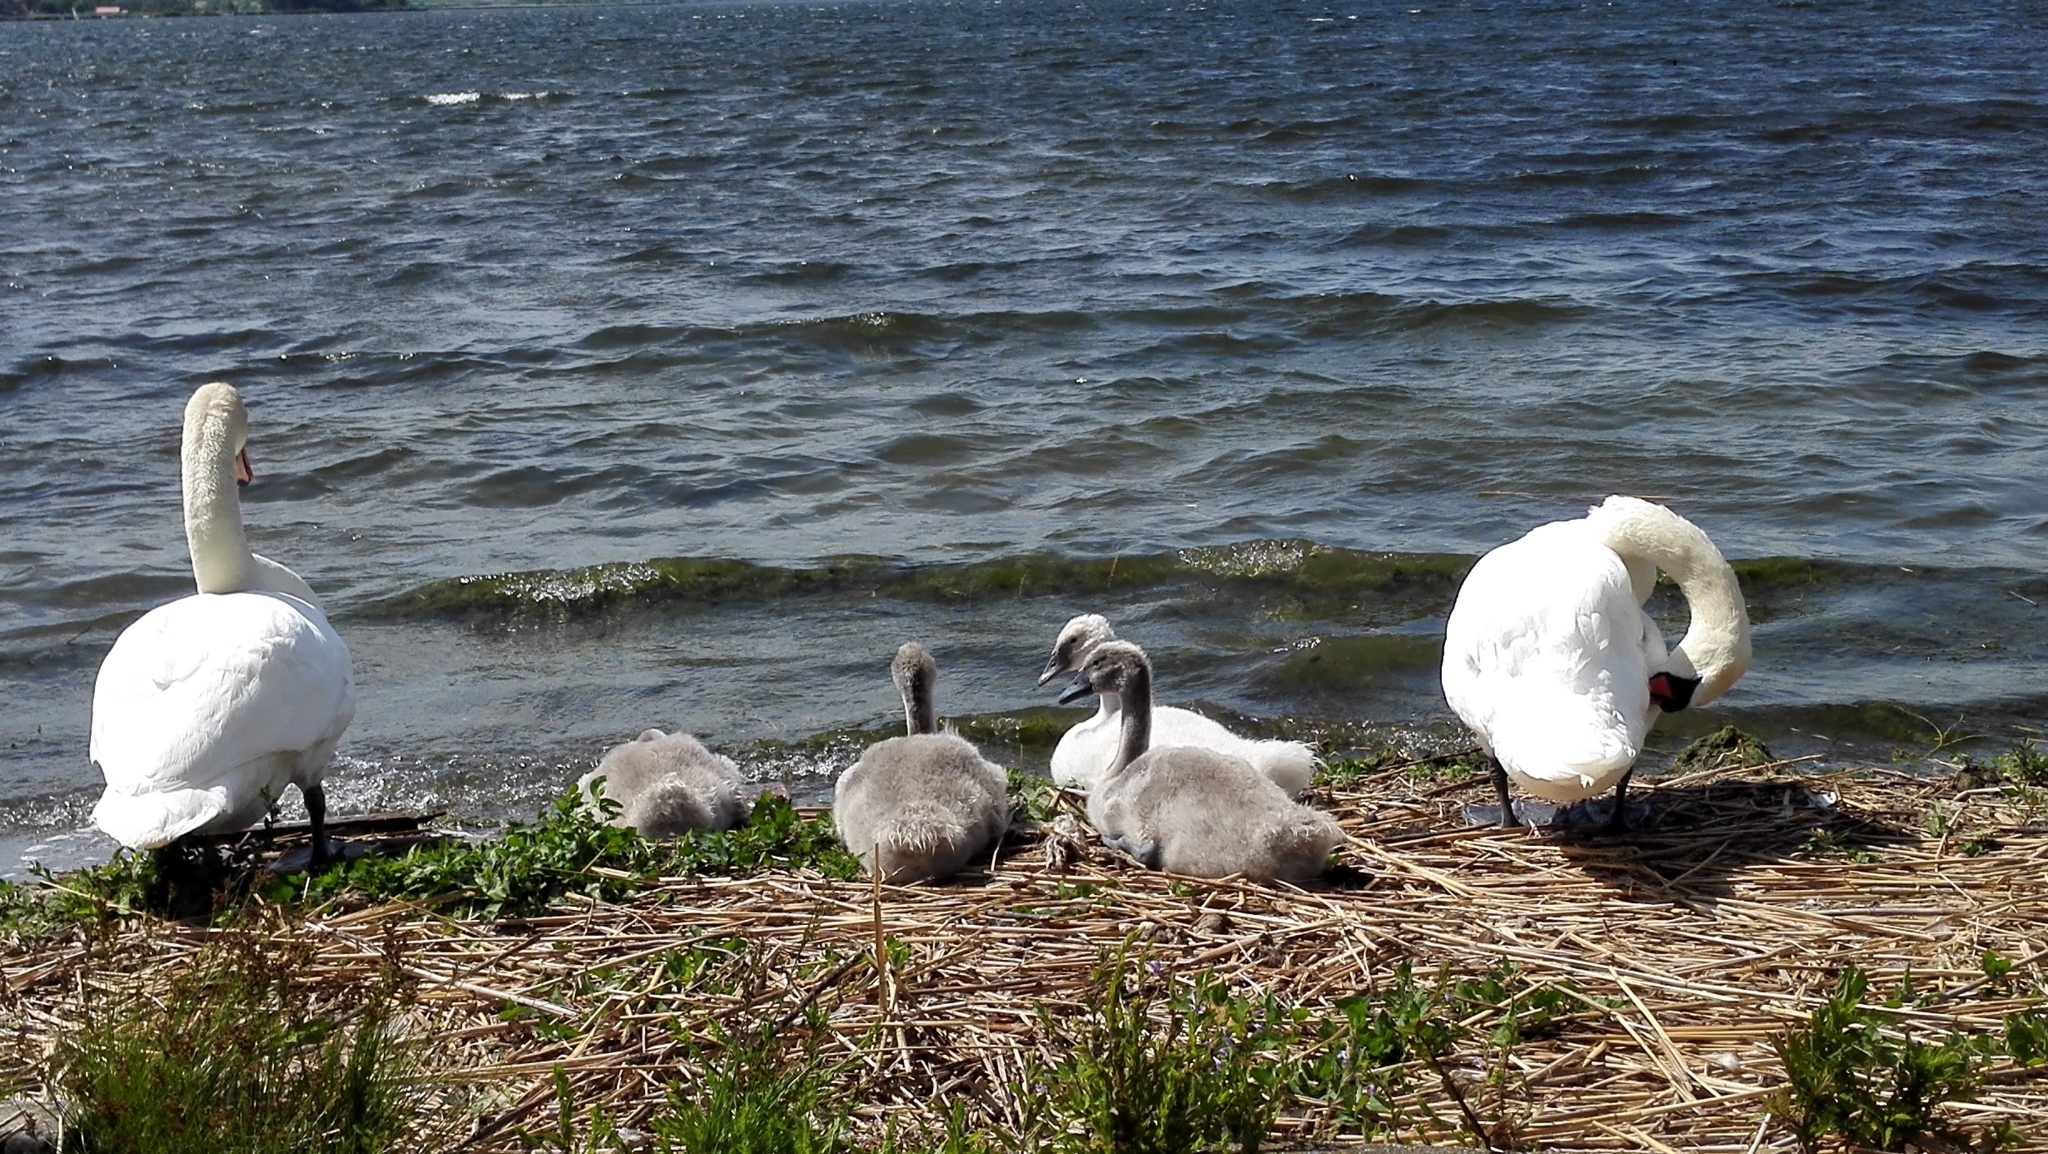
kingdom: Animalia
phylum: Chordata
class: Aves
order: Anseriformes
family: Anatidae
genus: Cygnus
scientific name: Cygnus olor
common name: Mute swan
